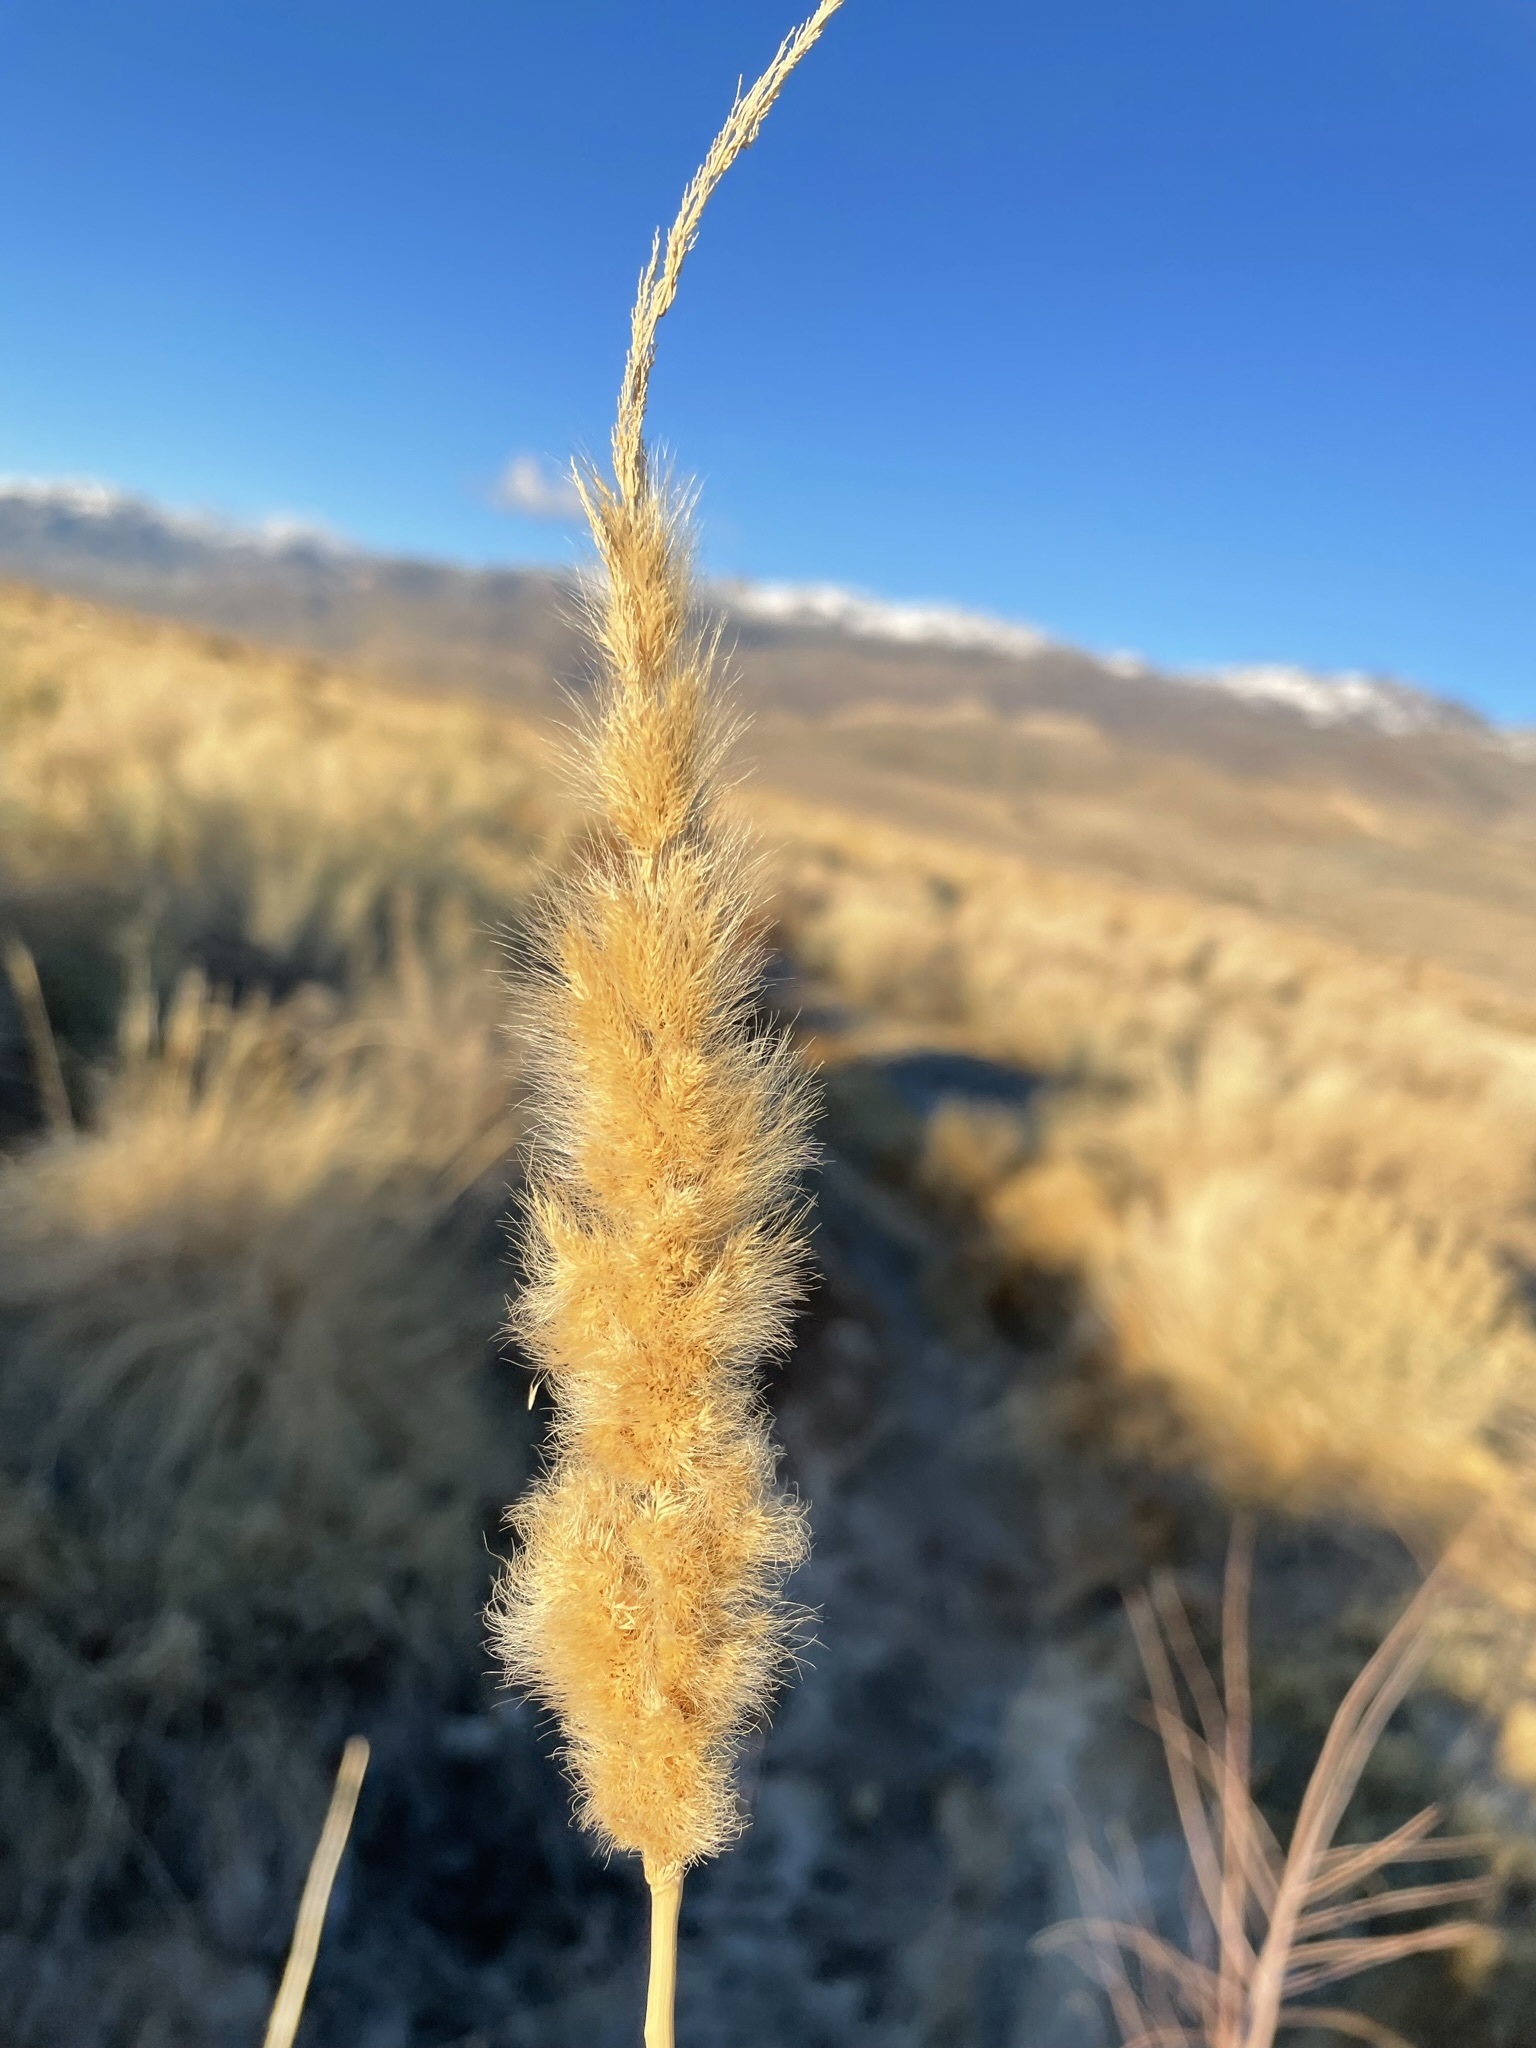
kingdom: Plantae
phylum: Tracheophyta
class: Liliopsida
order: Poales
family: Poaceae
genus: Polypogon
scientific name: Polypogon monspeliensis
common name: Annual rabbitsfoot grass
